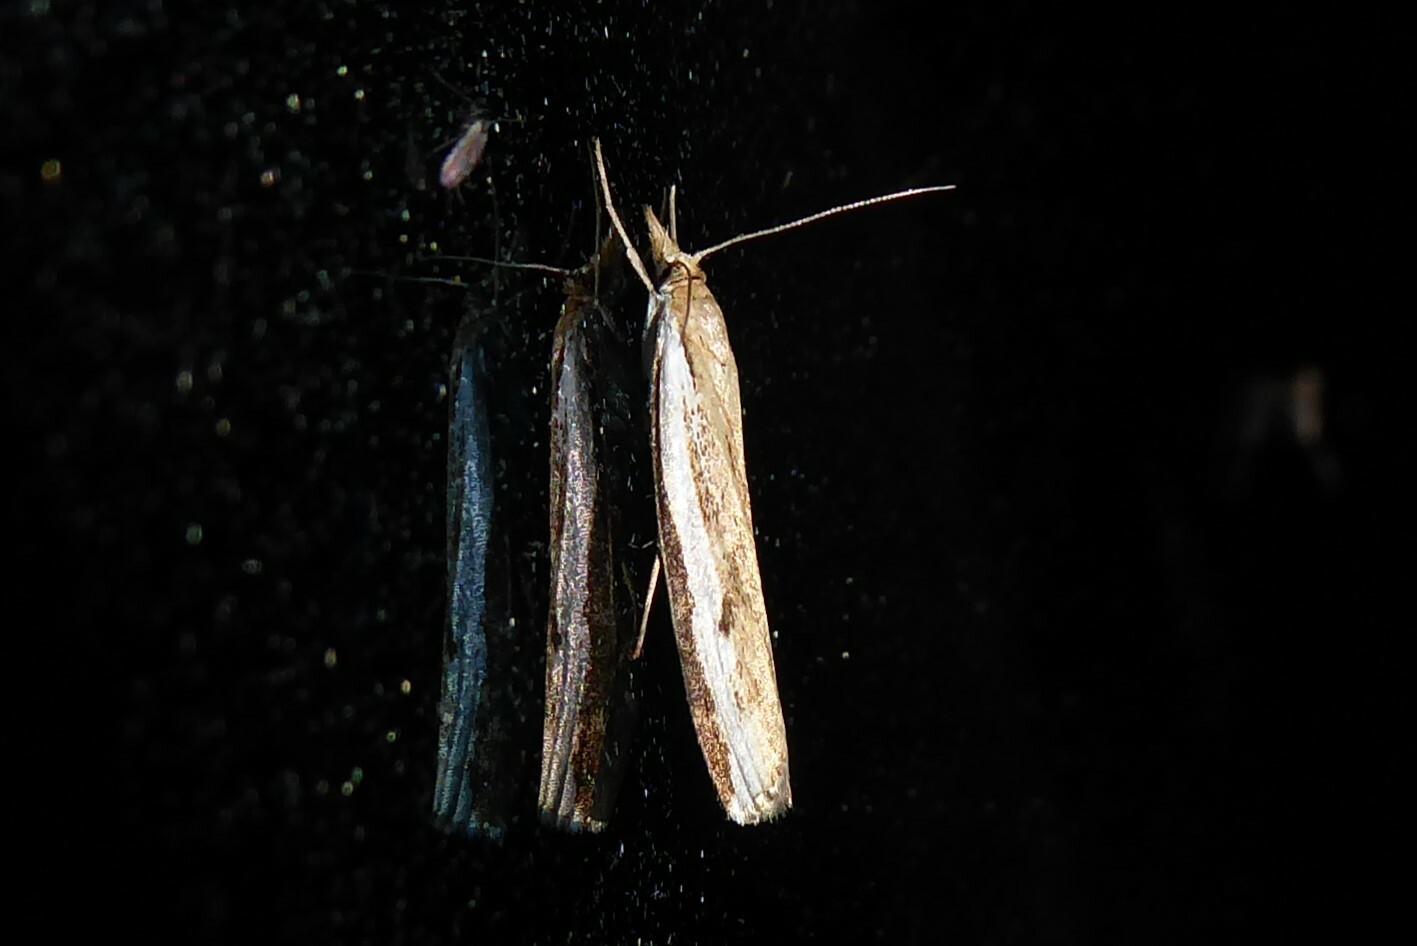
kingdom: Animalia
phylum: Arthropoda
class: Insecta
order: Lepidoptera
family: Crambidae
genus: Orocrambus
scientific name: Orocrambus flexuosellus
